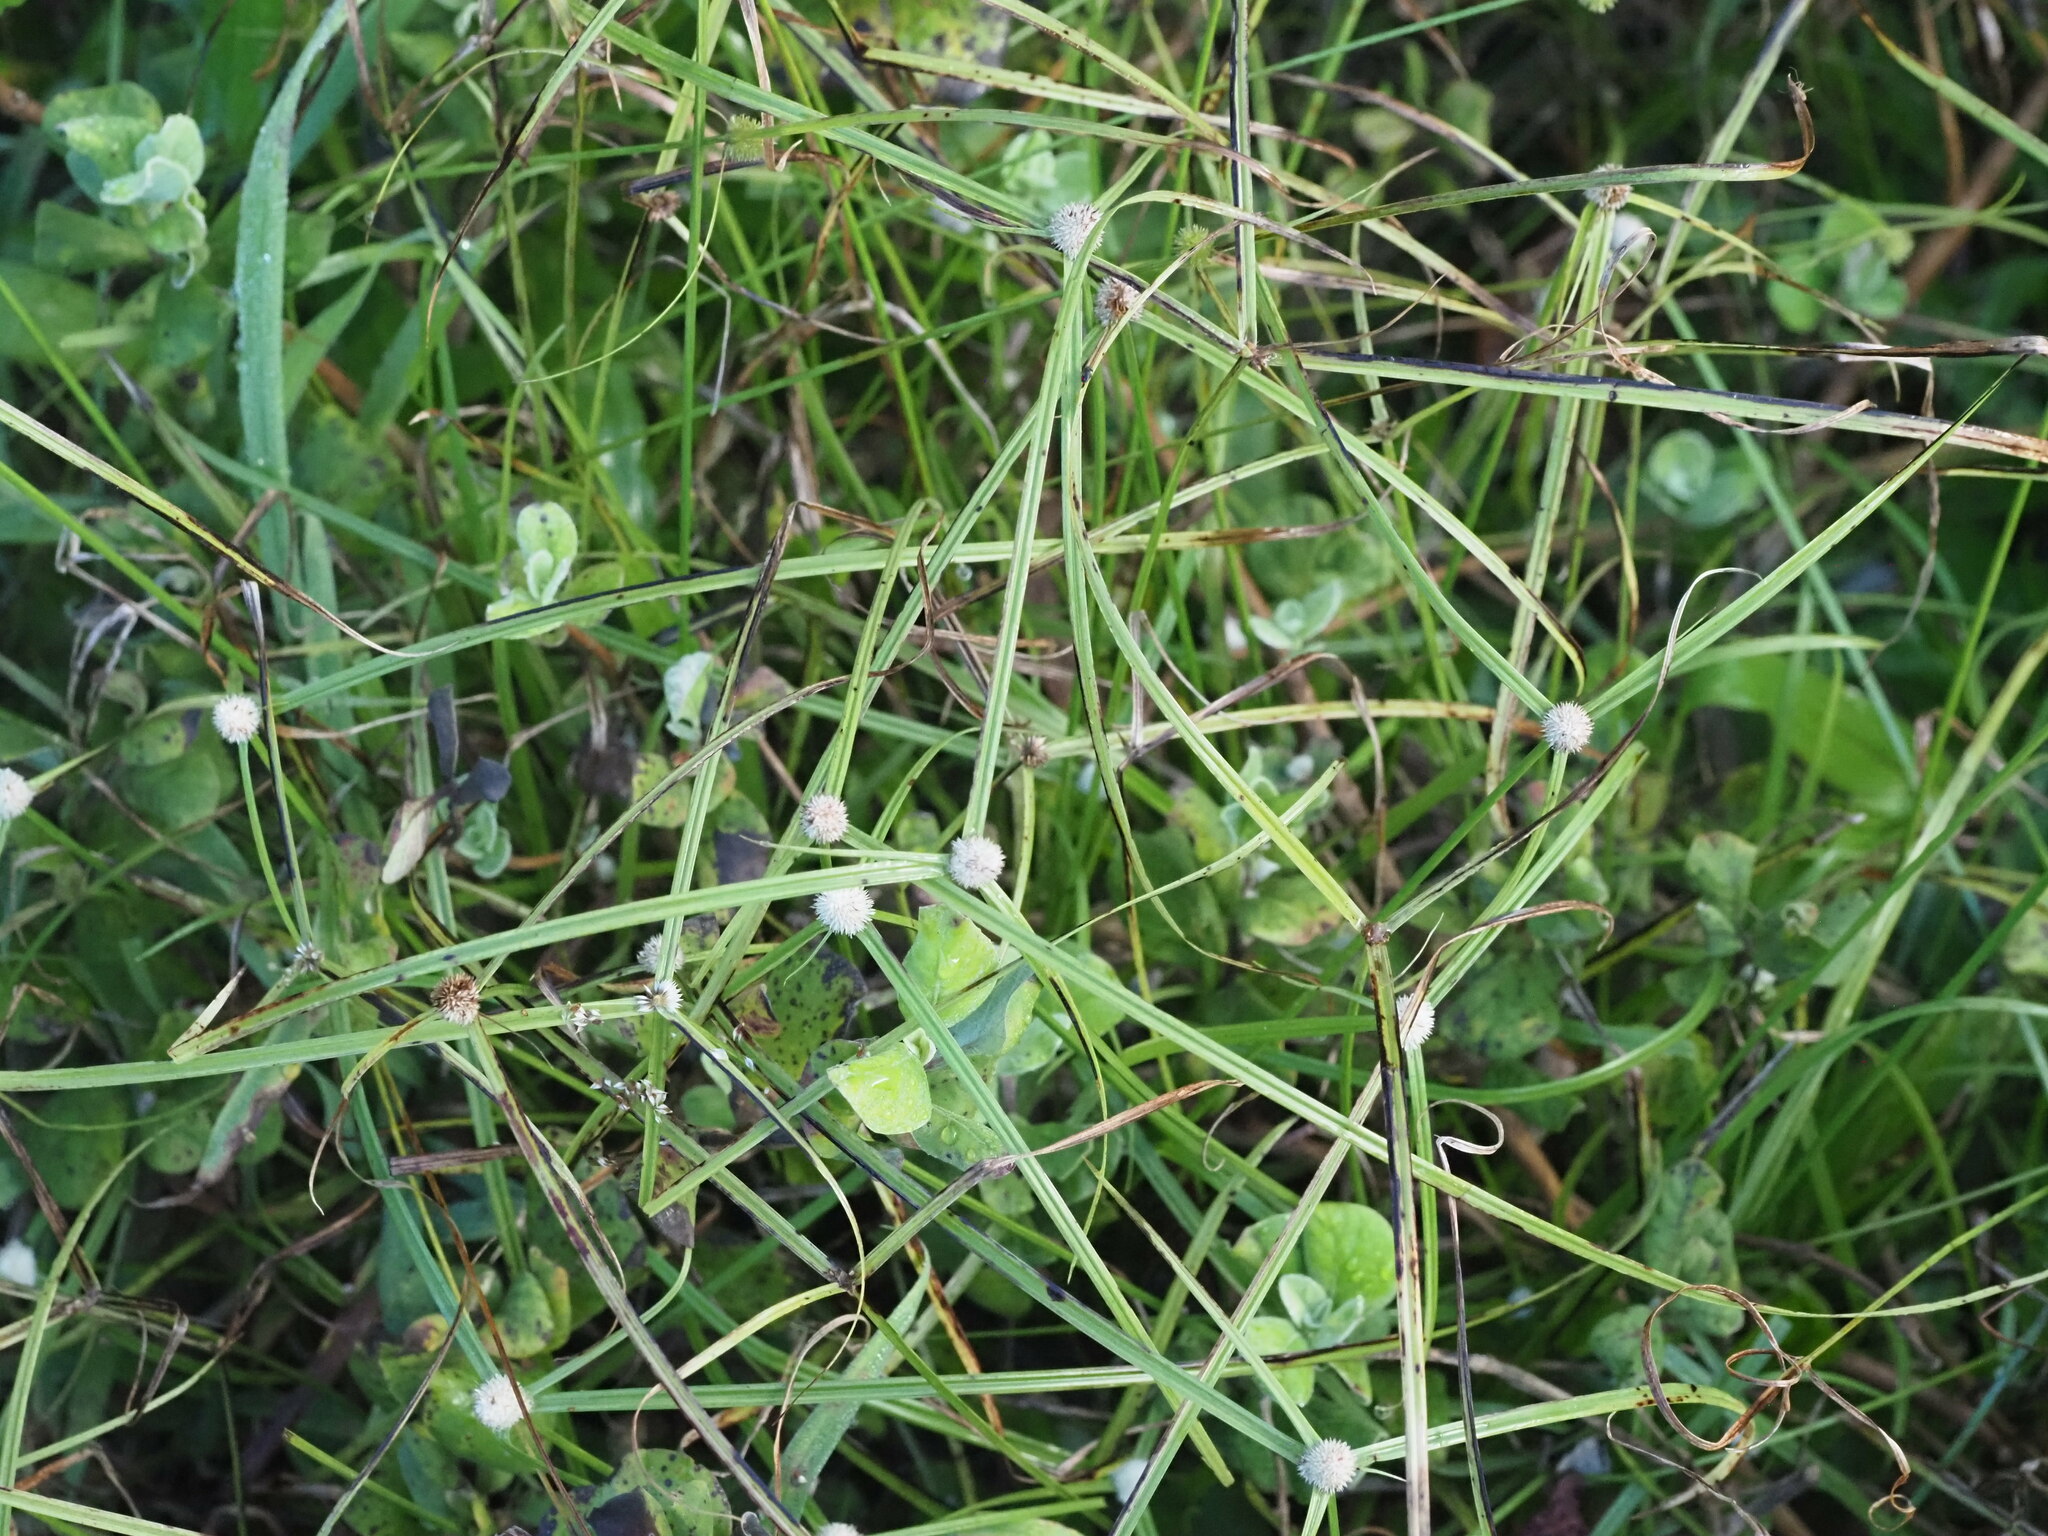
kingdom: Plantae
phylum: Tracheophyta
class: Liliopsida
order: Poales
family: Cyperaceae
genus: Cyperus
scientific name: Cyperus mindorensis
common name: Flatsedge
